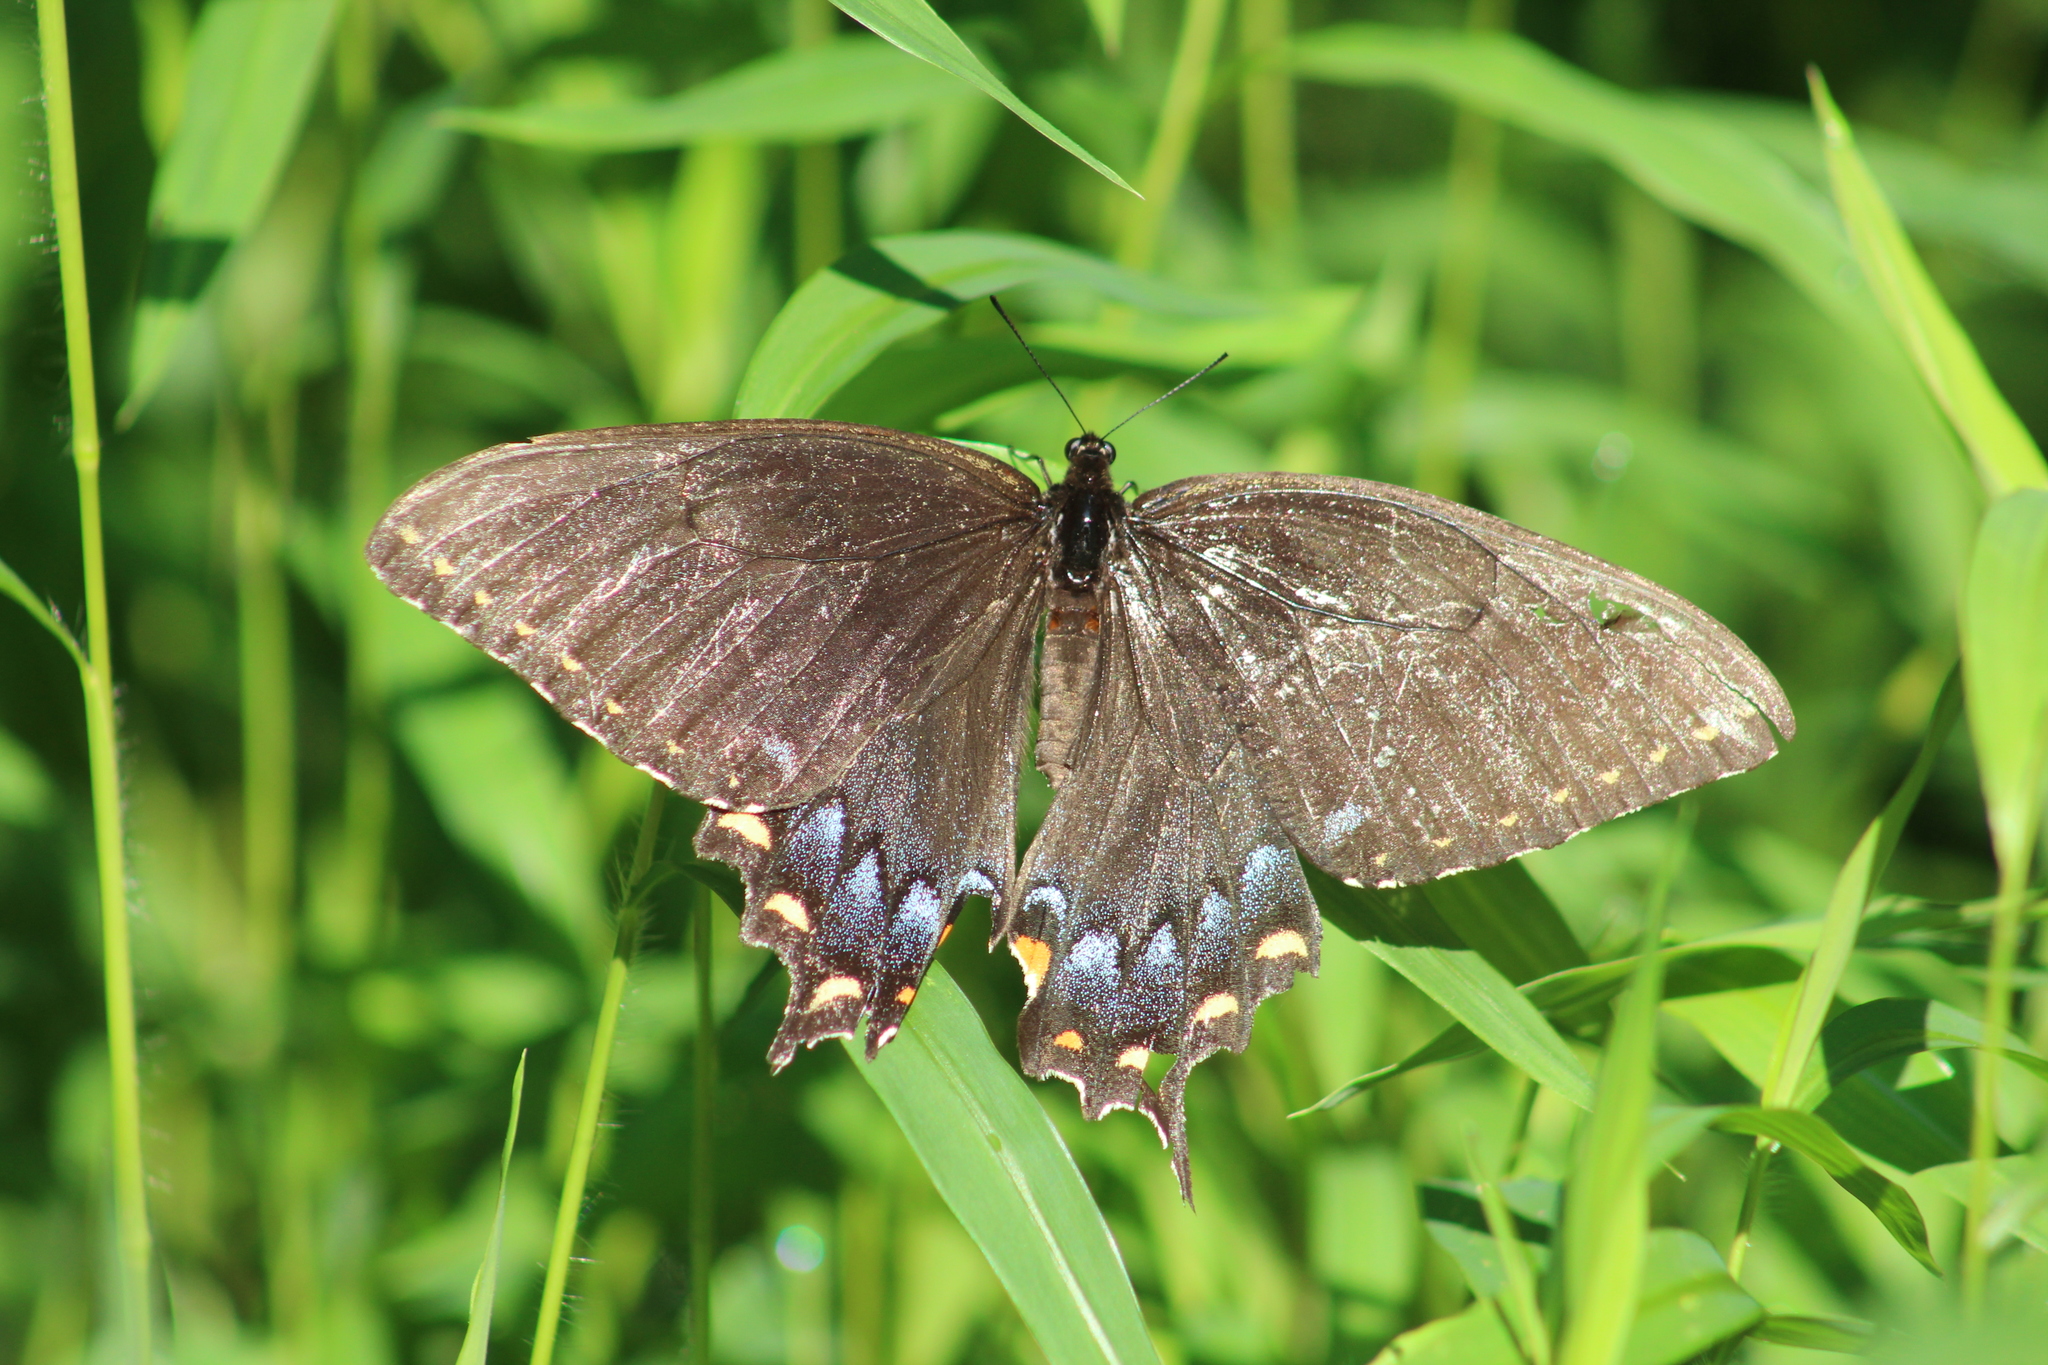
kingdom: Animalia
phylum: Arthropoda
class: Insecta
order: Lepidoptera
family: Papilionidae
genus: Papilio
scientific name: Papilio glaucus
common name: Tiger swallowtail
